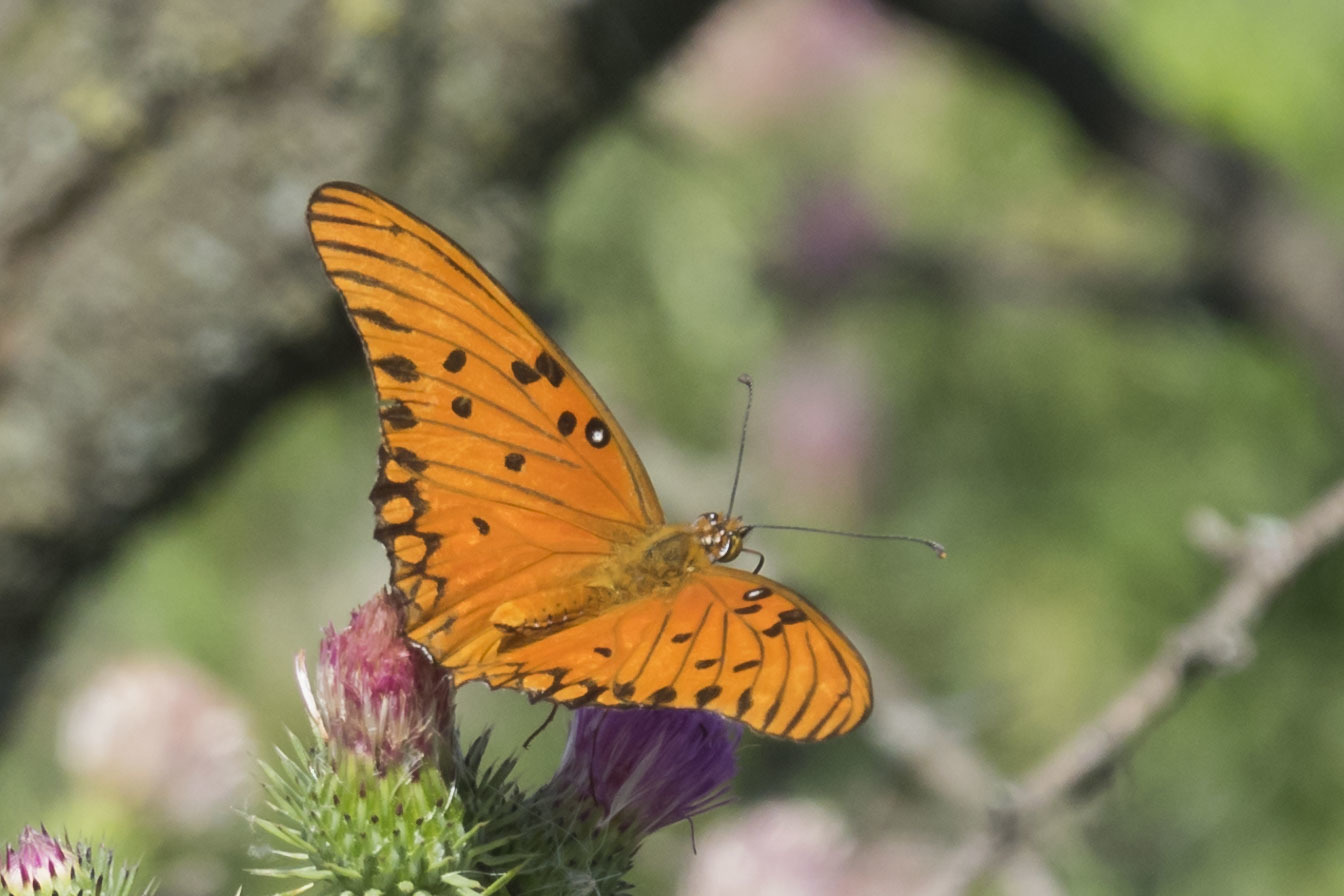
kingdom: Animalia
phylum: Arthropoda
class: Insecta
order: Lepidoptera
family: Nymphalidae
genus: Dione
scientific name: Dione vanillae
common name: Gulf fritillary
